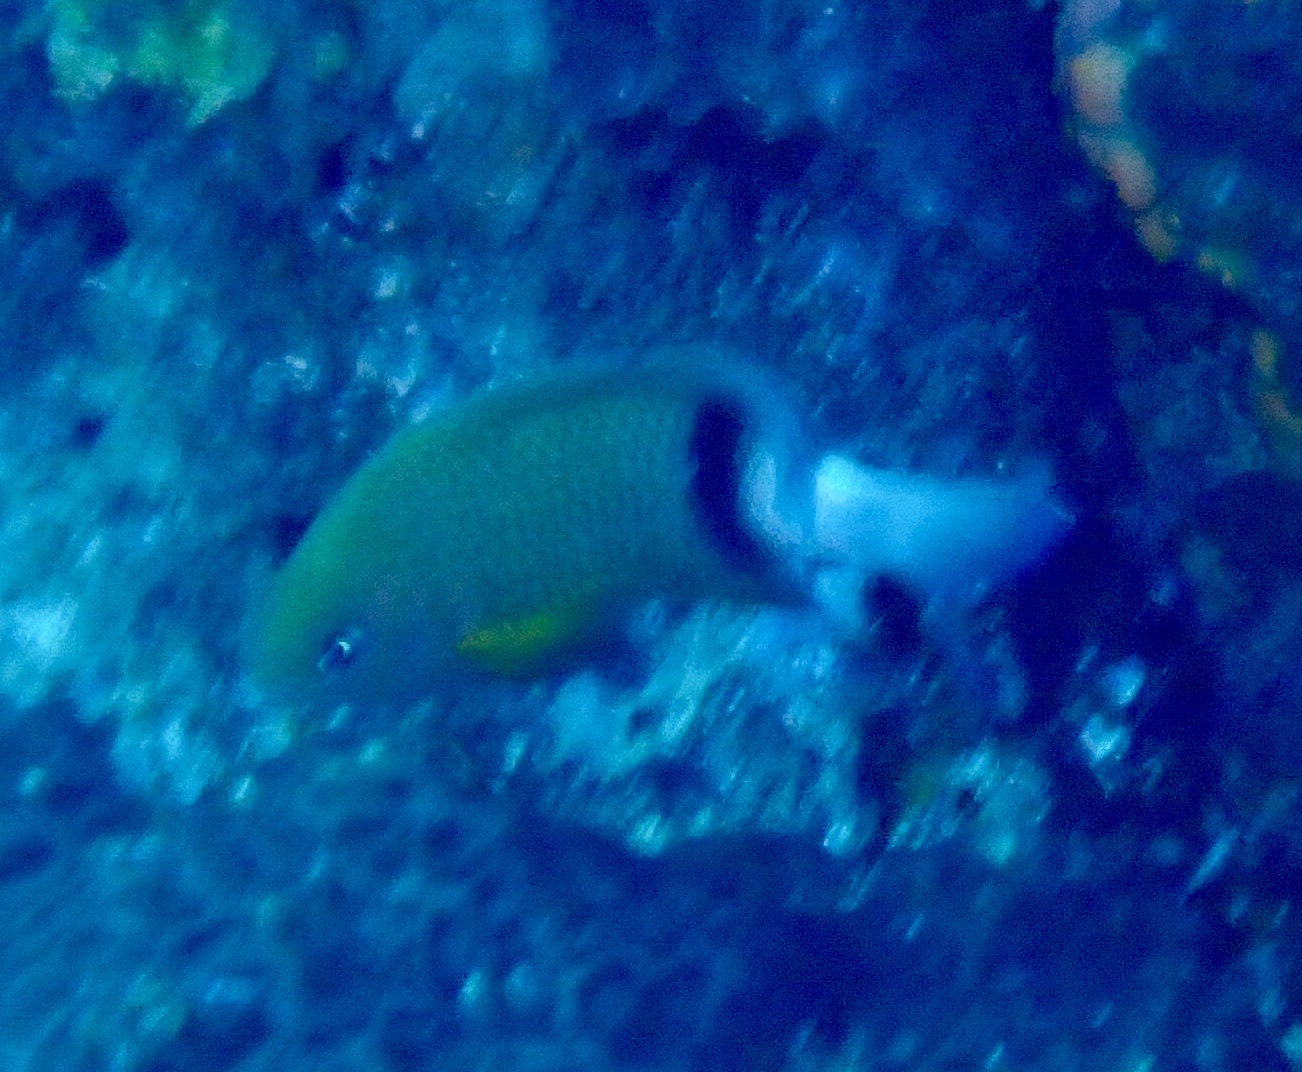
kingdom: Animalia
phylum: Chordata
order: Perciformes
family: Pomacentridae
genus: Plectroglyphidodon
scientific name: Plectroglyphidodon dickii
